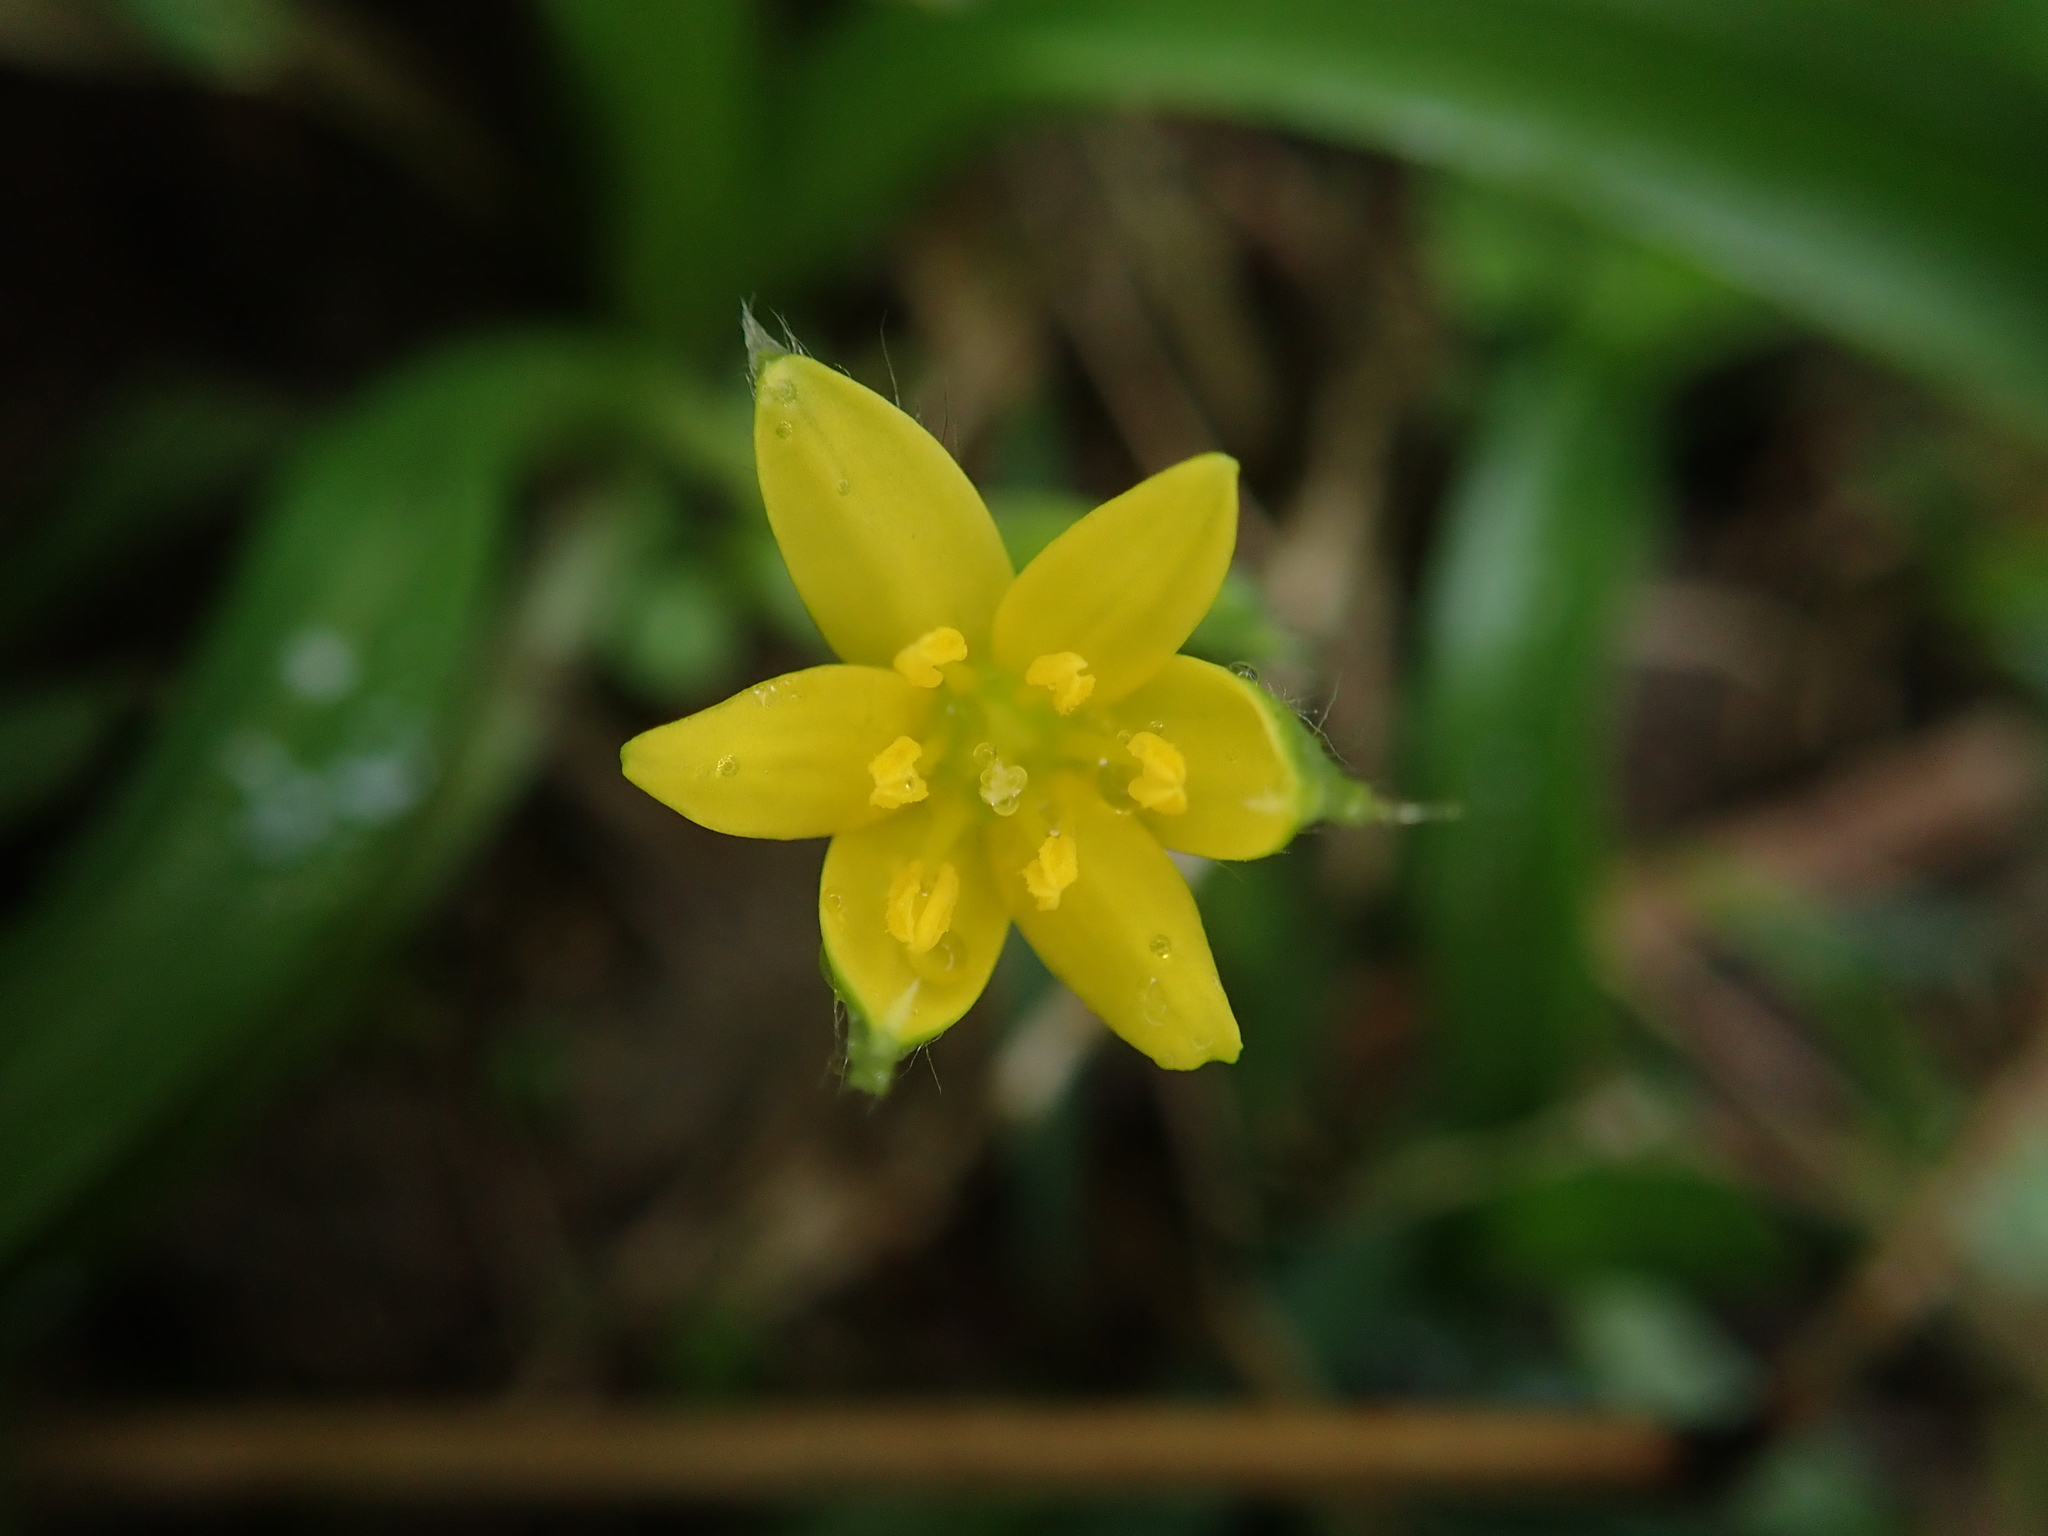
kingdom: Plantae
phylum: Tracheophyta
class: Liliopsida
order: Asparagales
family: Hypoxidaceae
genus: Hypoxis
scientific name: Hypoxis aurea
